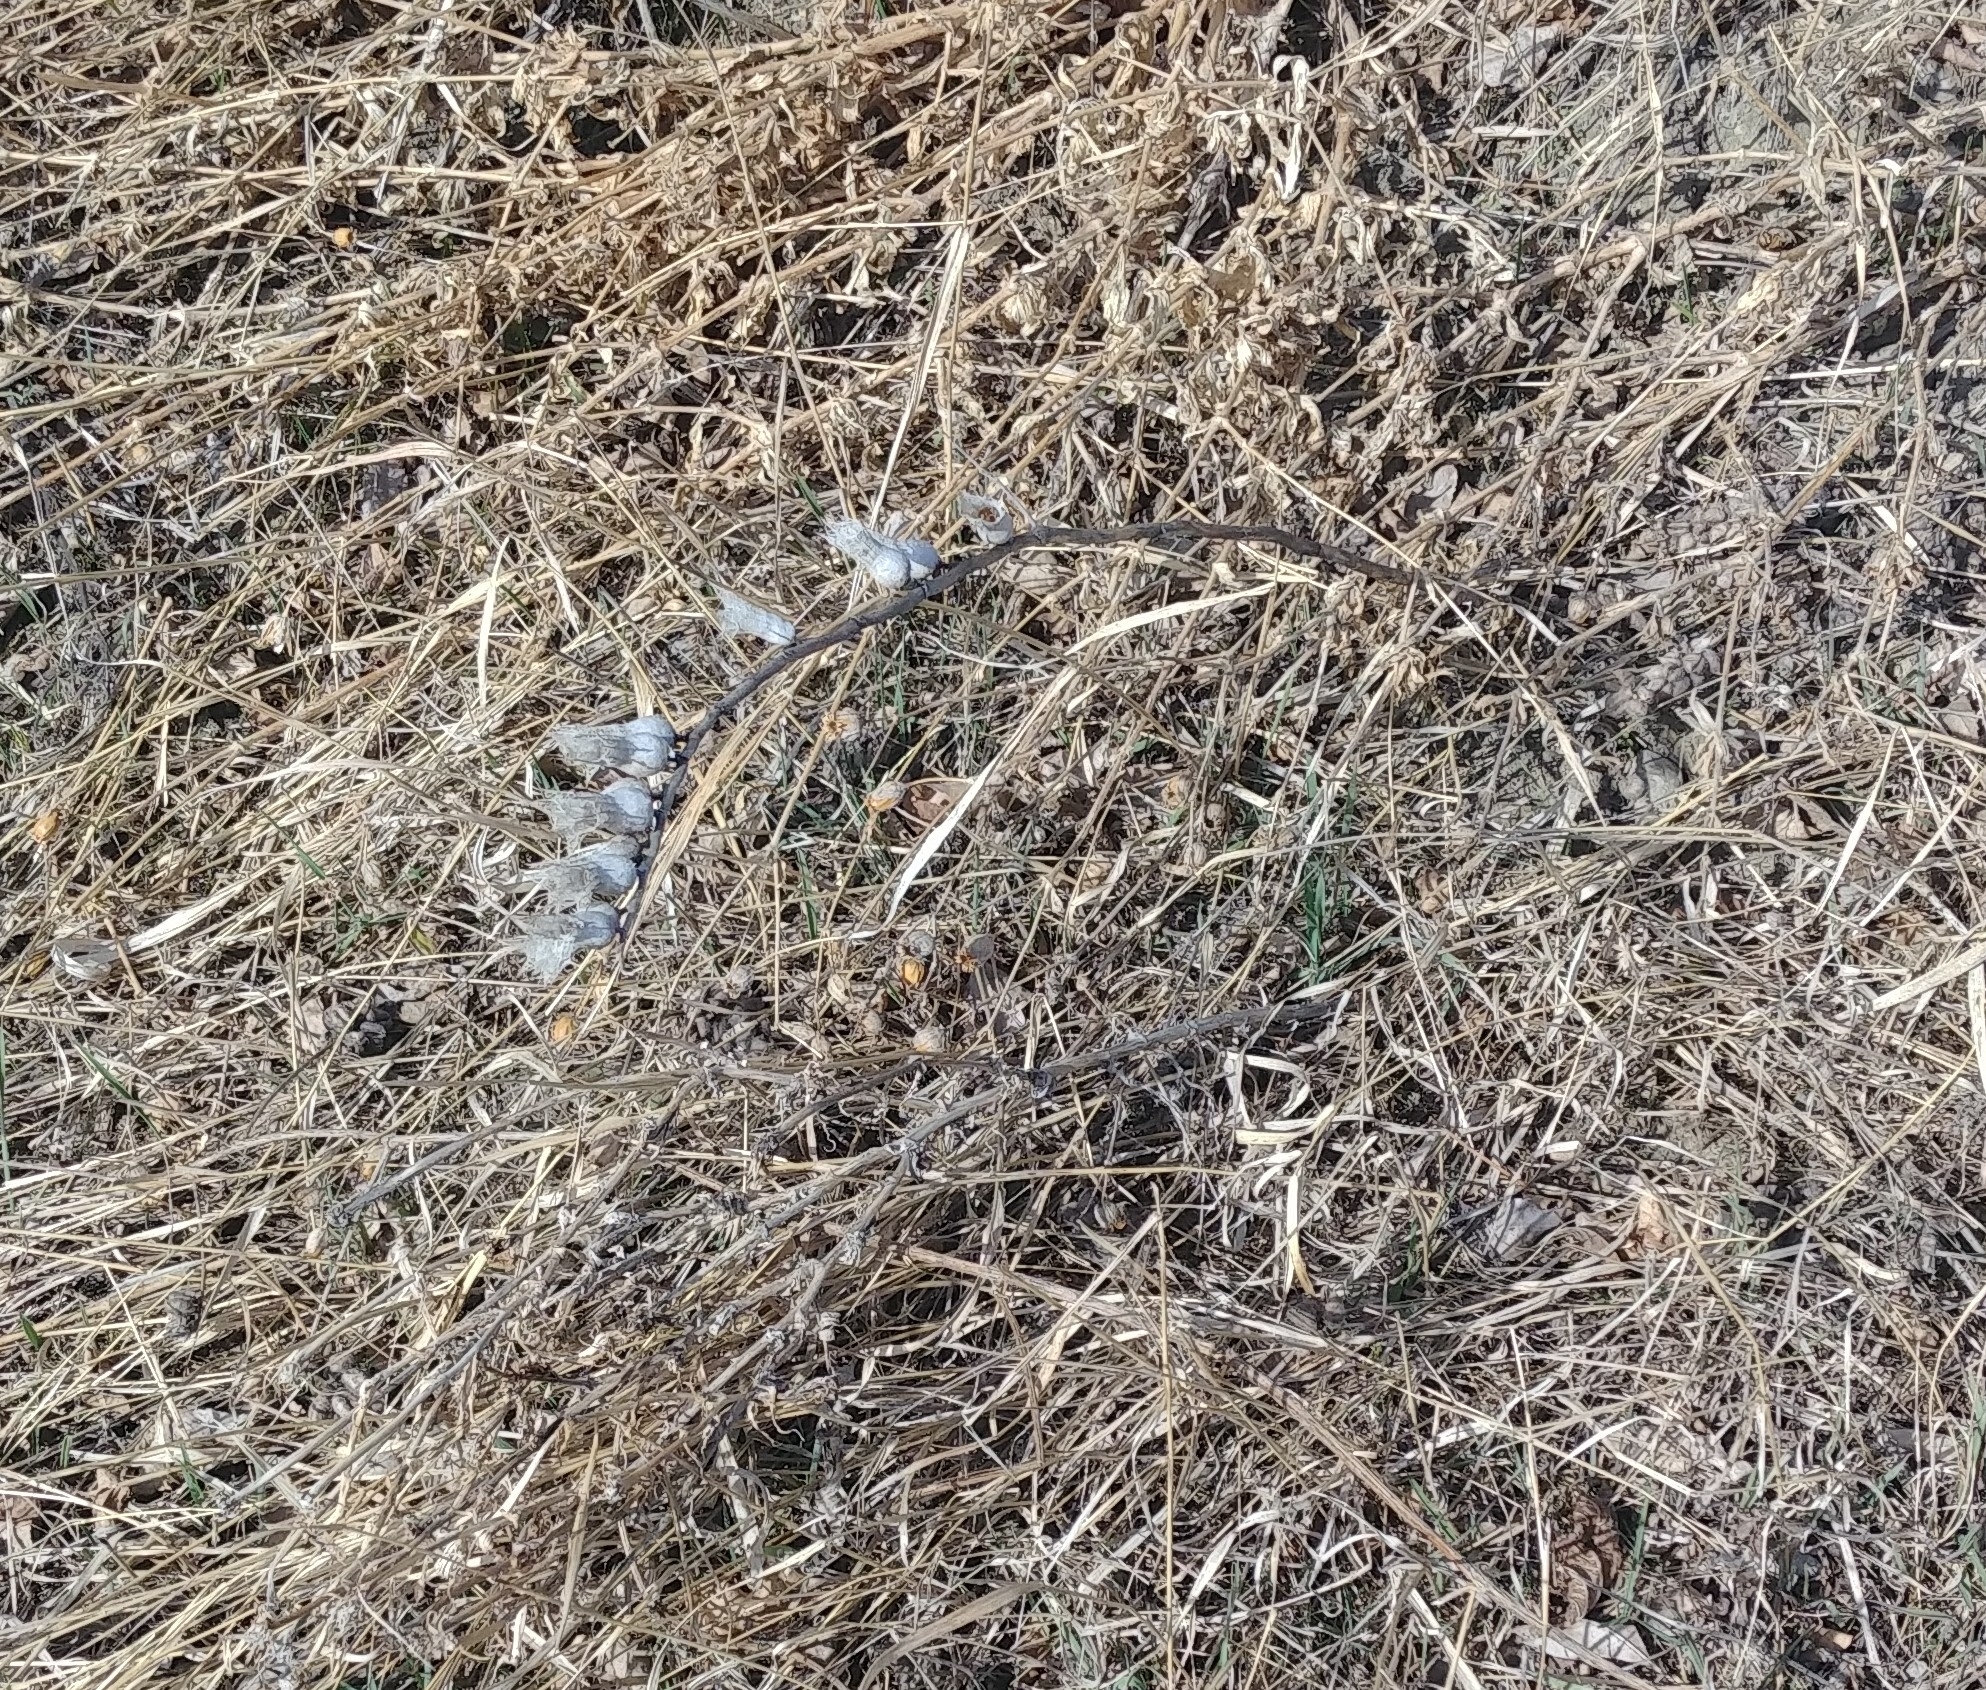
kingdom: Plantae
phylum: Tracheophyta
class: Magnoliopsida
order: Solanales
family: Solanaceae
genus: Hyoscyamus
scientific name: Hyoscyamus niger
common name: Henbane
